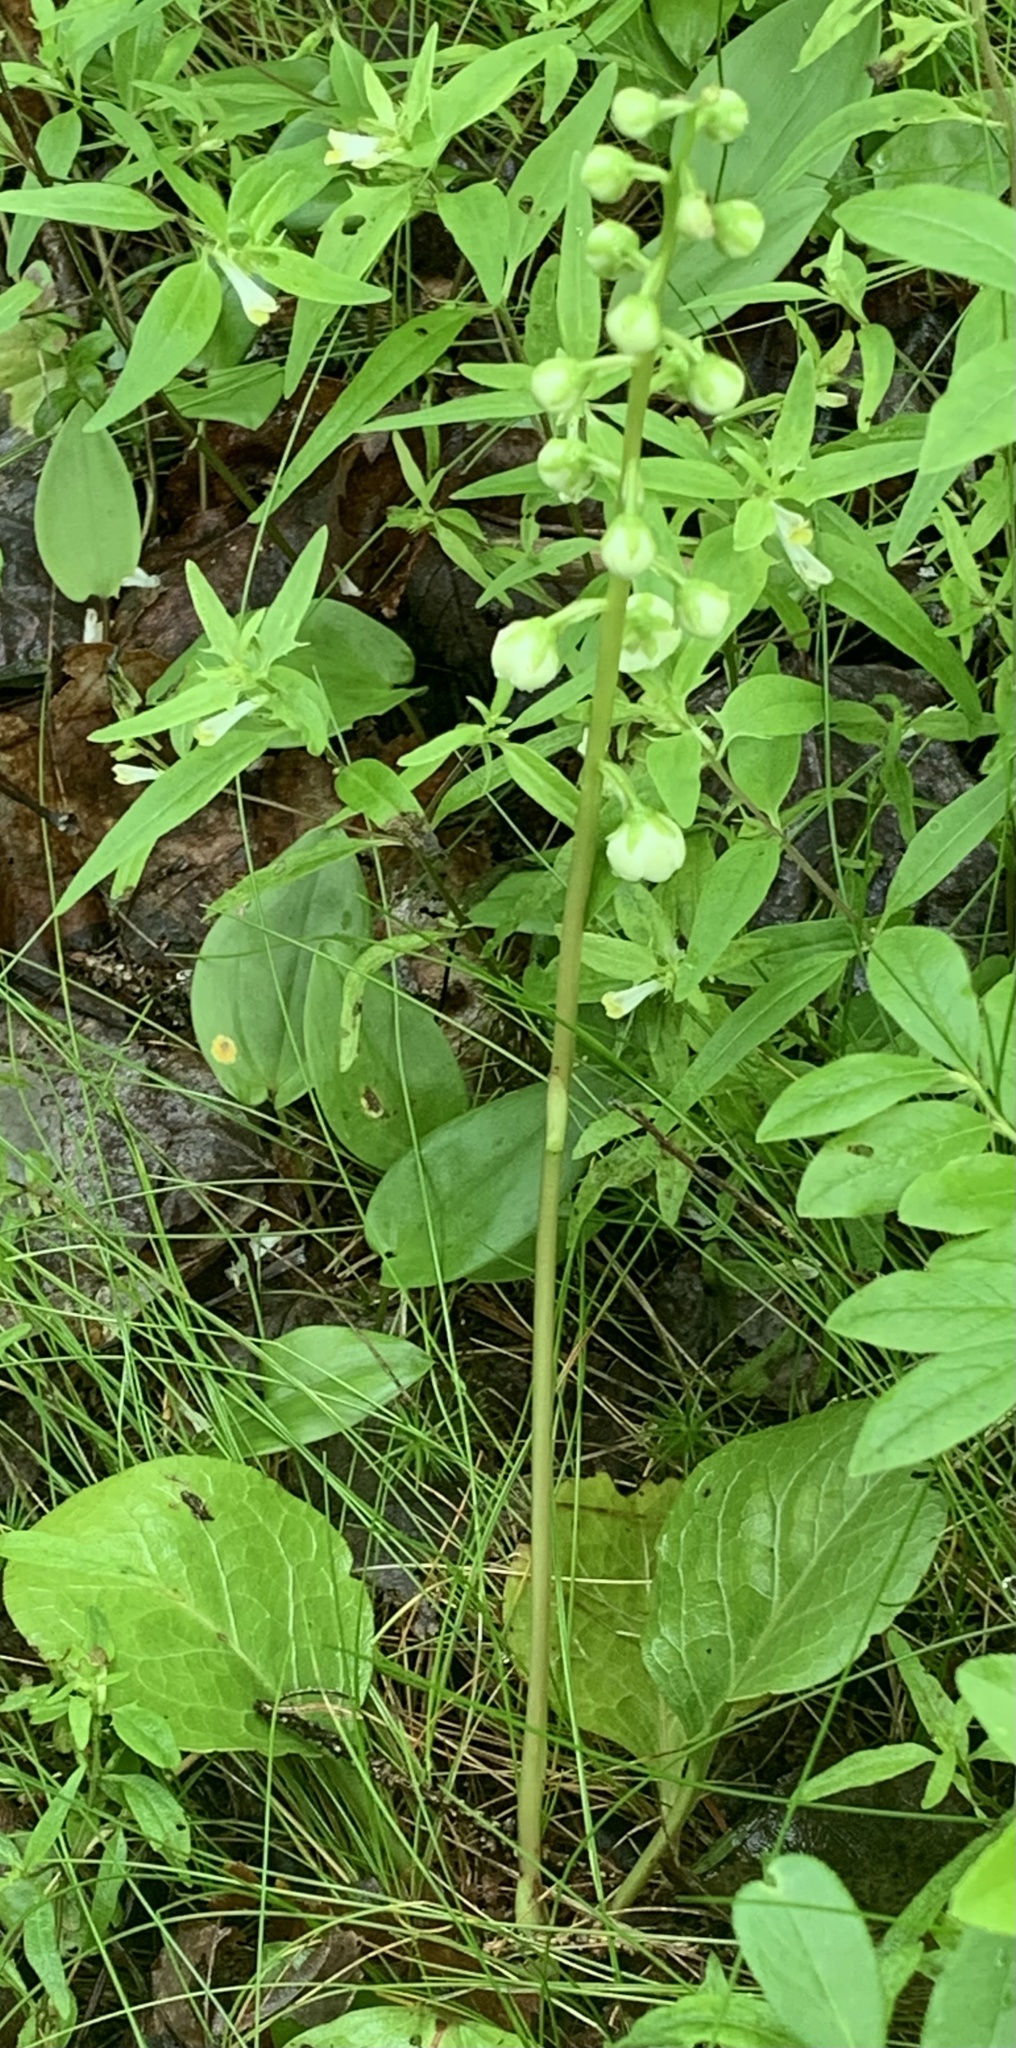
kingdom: Plantae
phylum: Tracheophyta
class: Magnoliopsida
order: Ericales
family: Ericaceae
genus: Pyrola
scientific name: Pyrola americana
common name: American wintergreen
